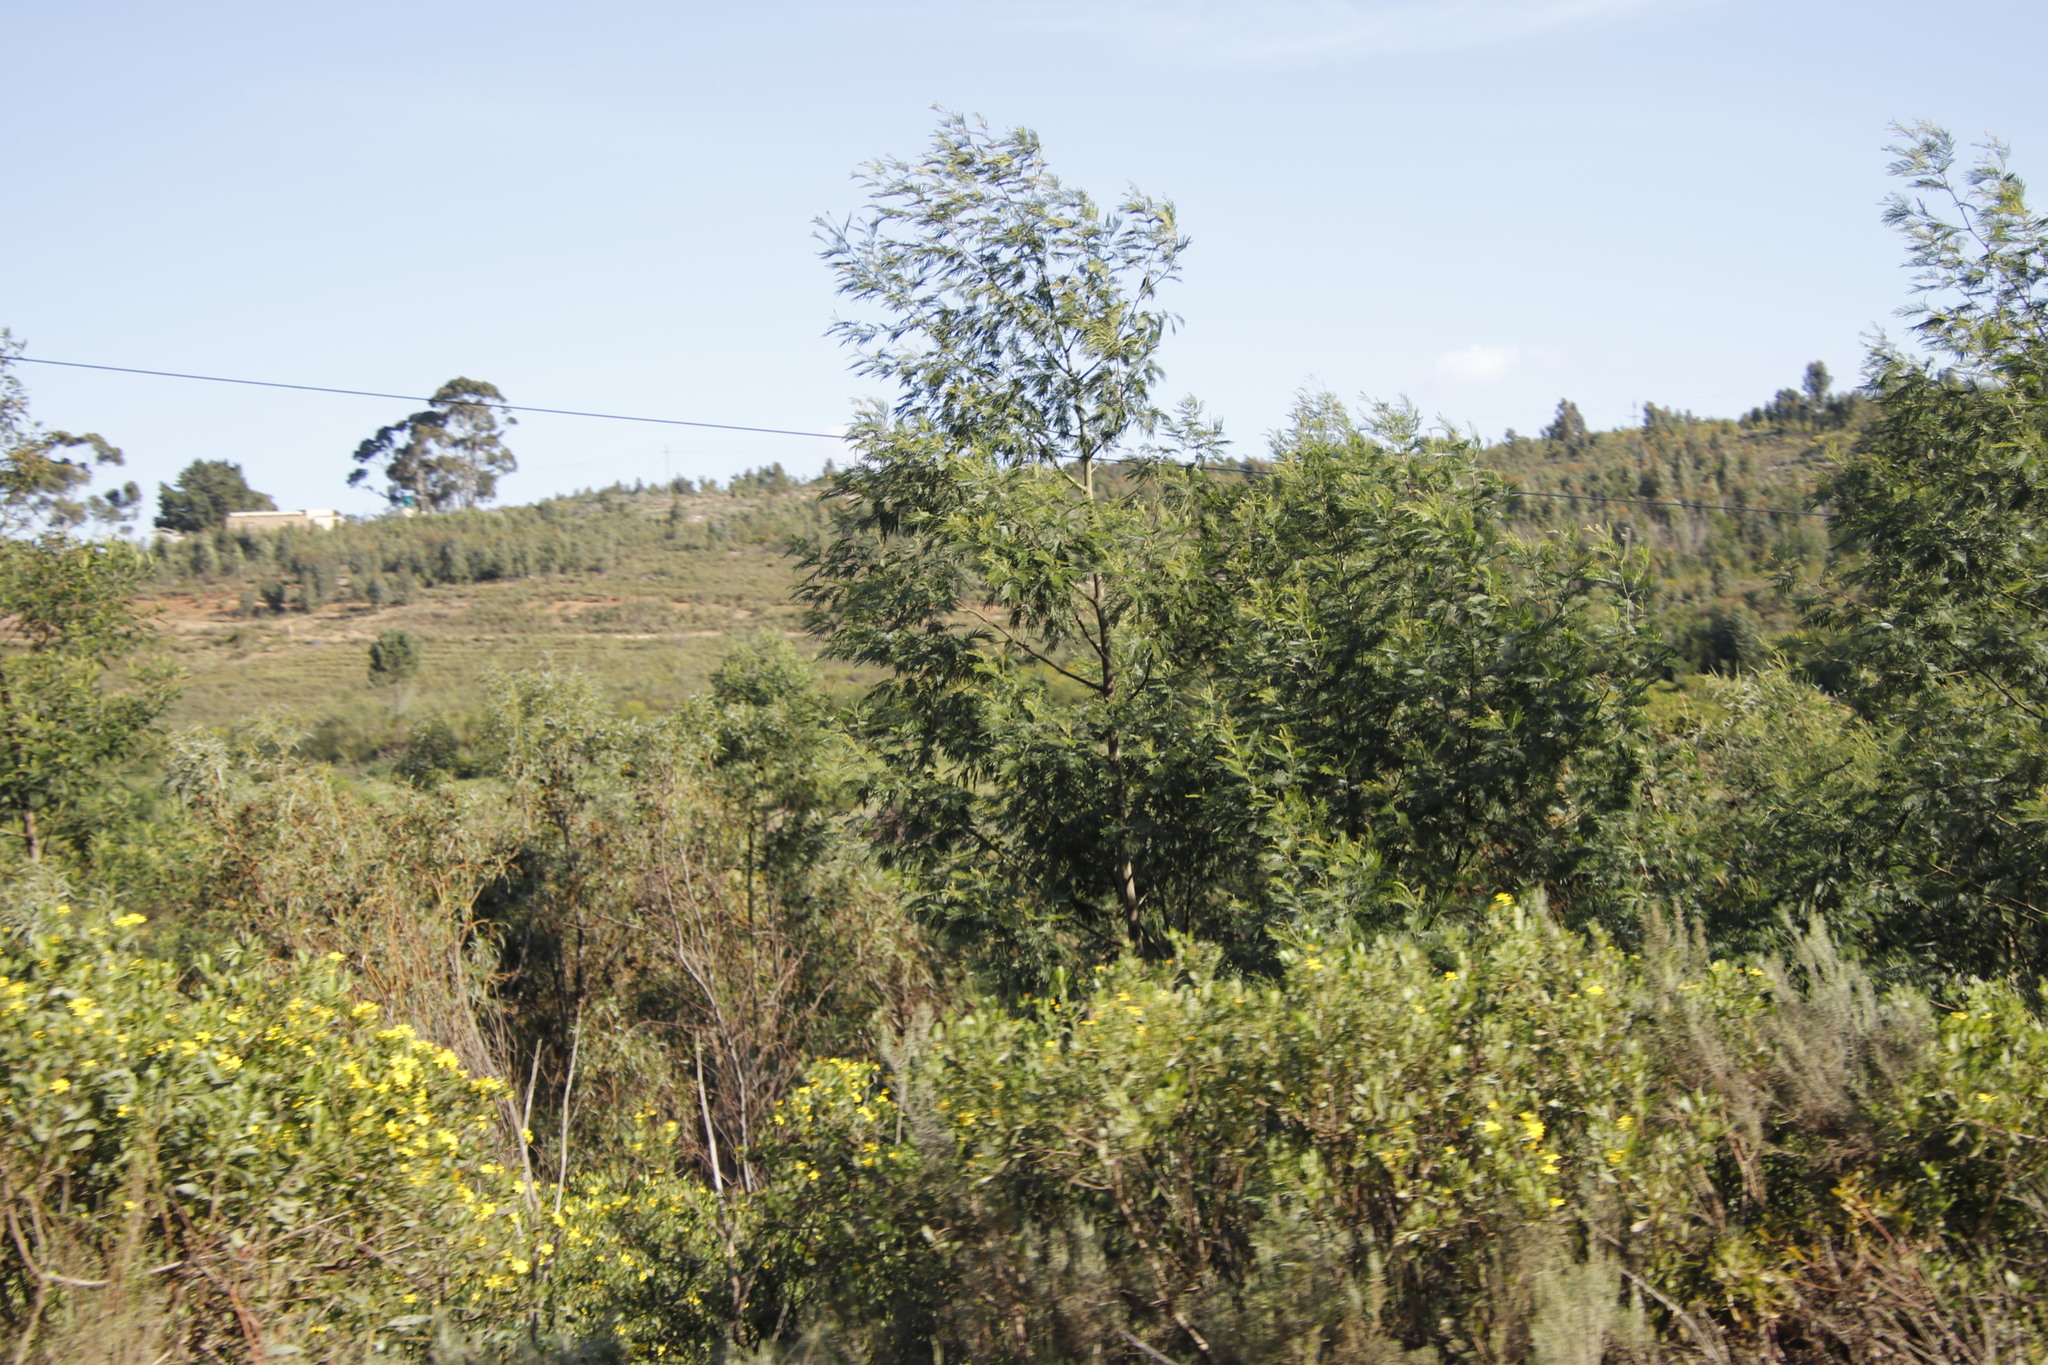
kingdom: Plantae
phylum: Tracheophyta
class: Magnoliopsida
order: Fabales
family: Fabaceae
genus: Acacia
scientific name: Acacia mearnsii
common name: Black wattle
